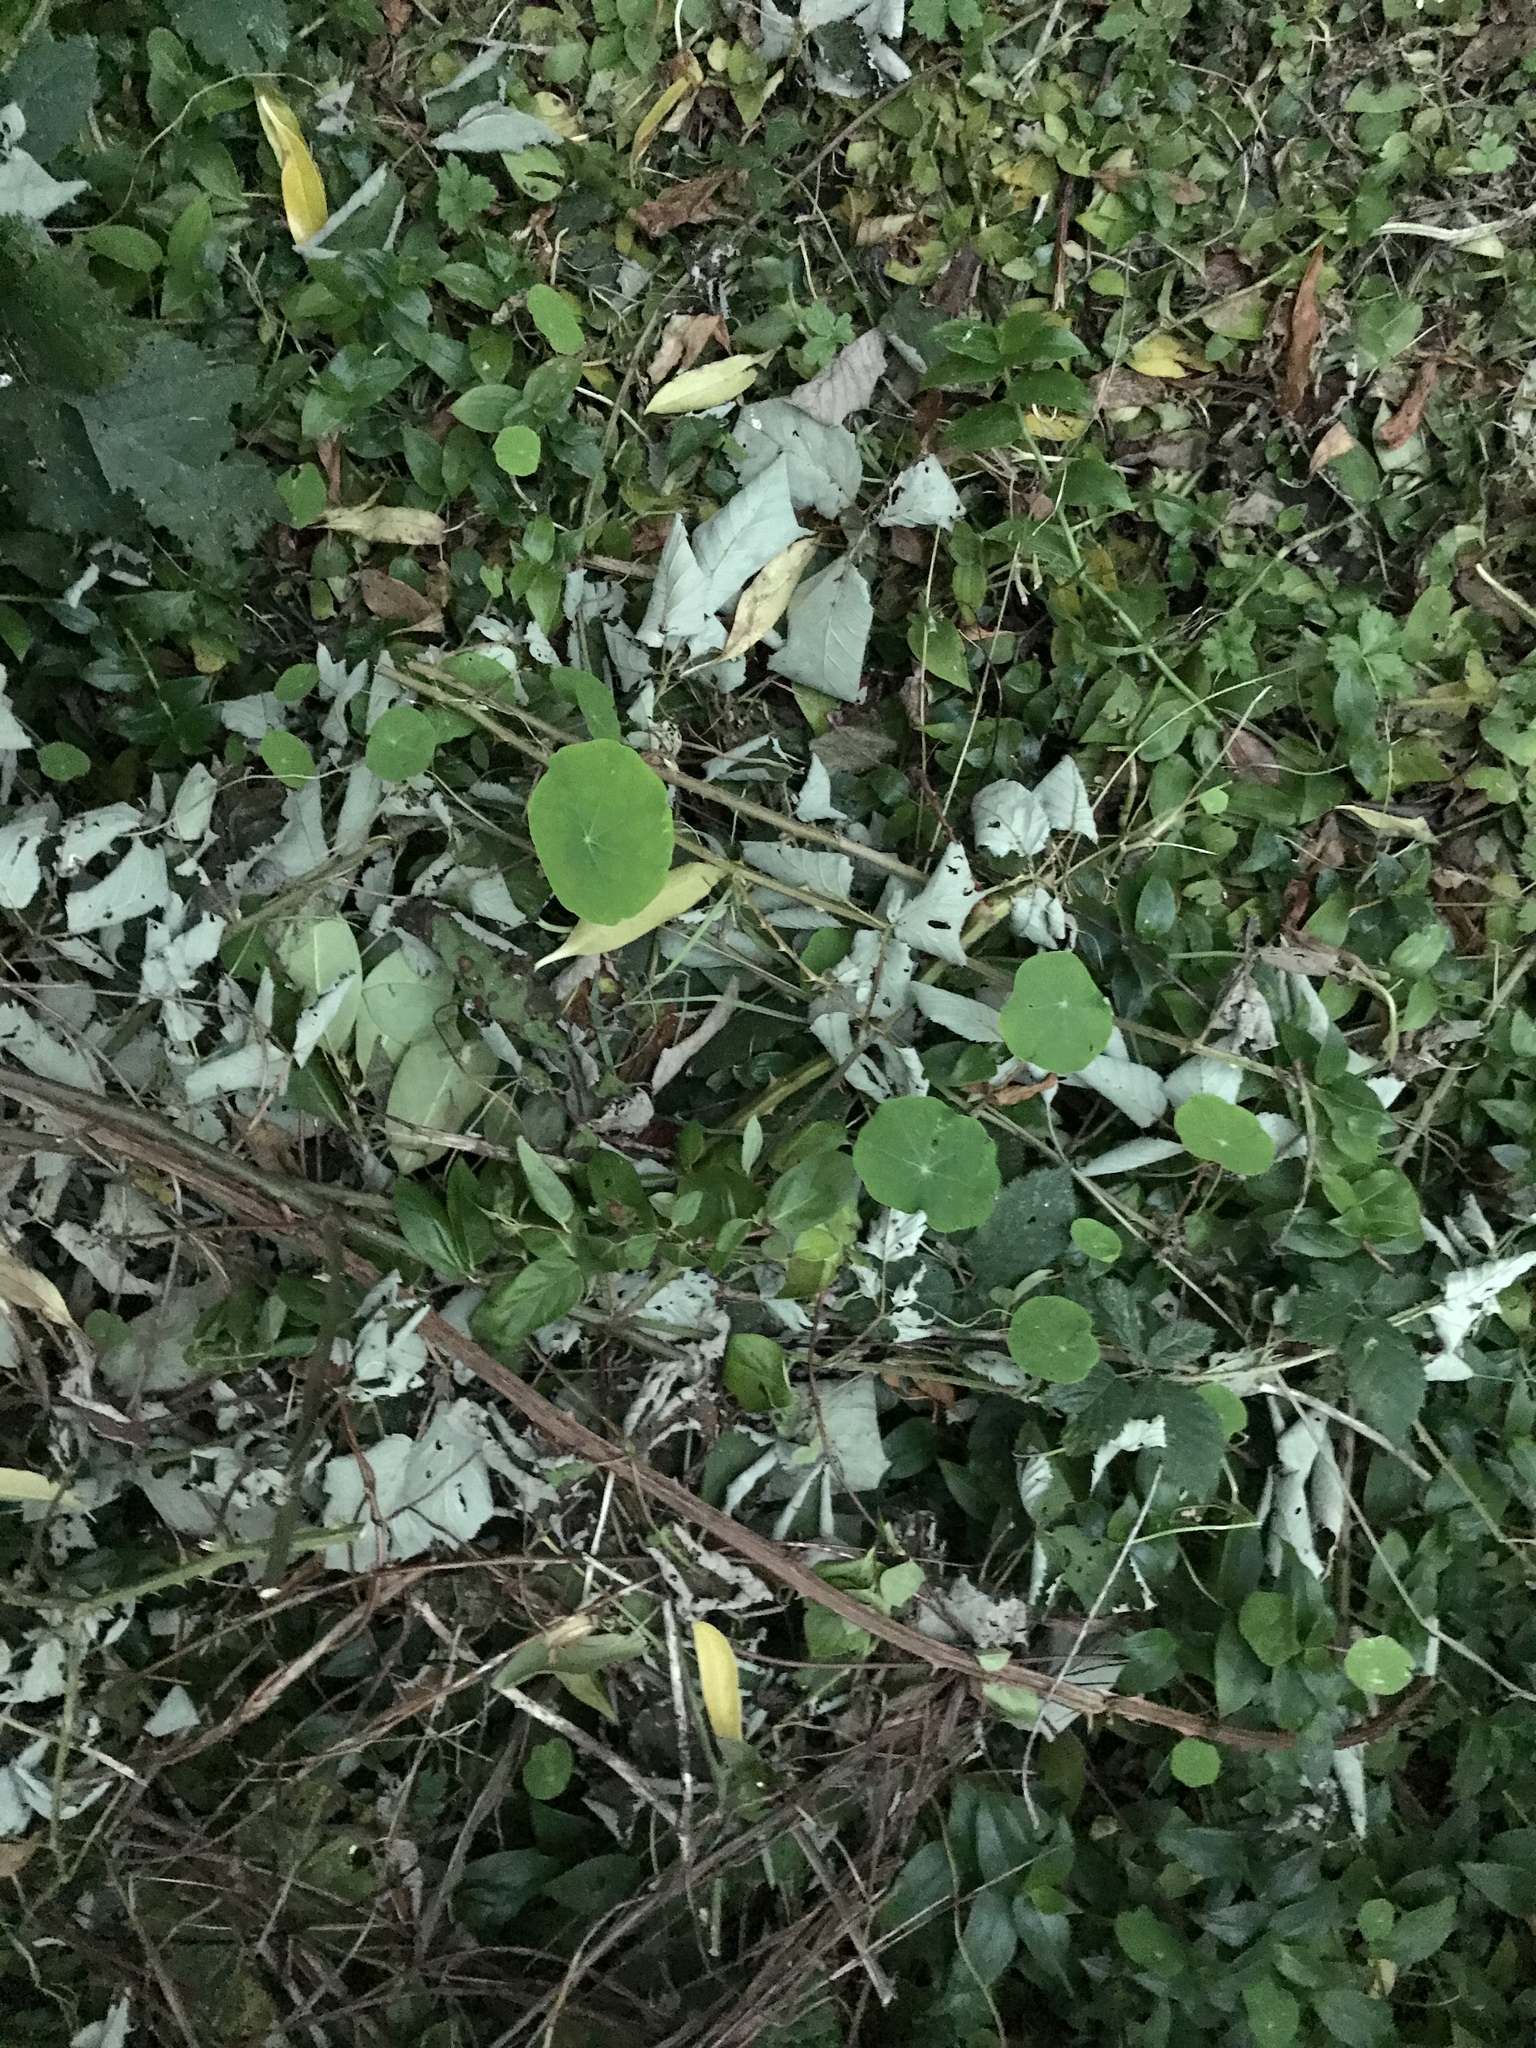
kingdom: Plantae
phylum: Tracheophyta
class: Magnoliopsida
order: Brassicales
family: Tropaeolaceae
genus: Tropaeolum
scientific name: Tropaeolum majus
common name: Nasturtium
